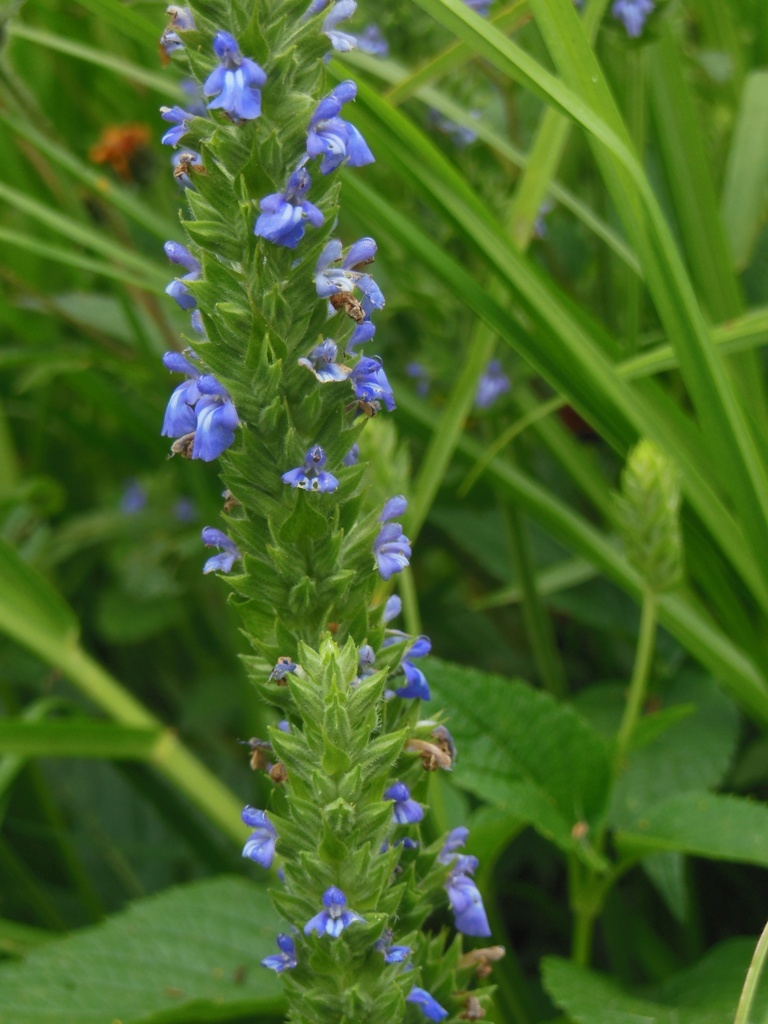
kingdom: Plantae
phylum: Tracheophyta
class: Magnoliopsida
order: Lamiales
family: Lamiaceae
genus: Salvia
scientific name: Salvia hispanica
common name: Chia
